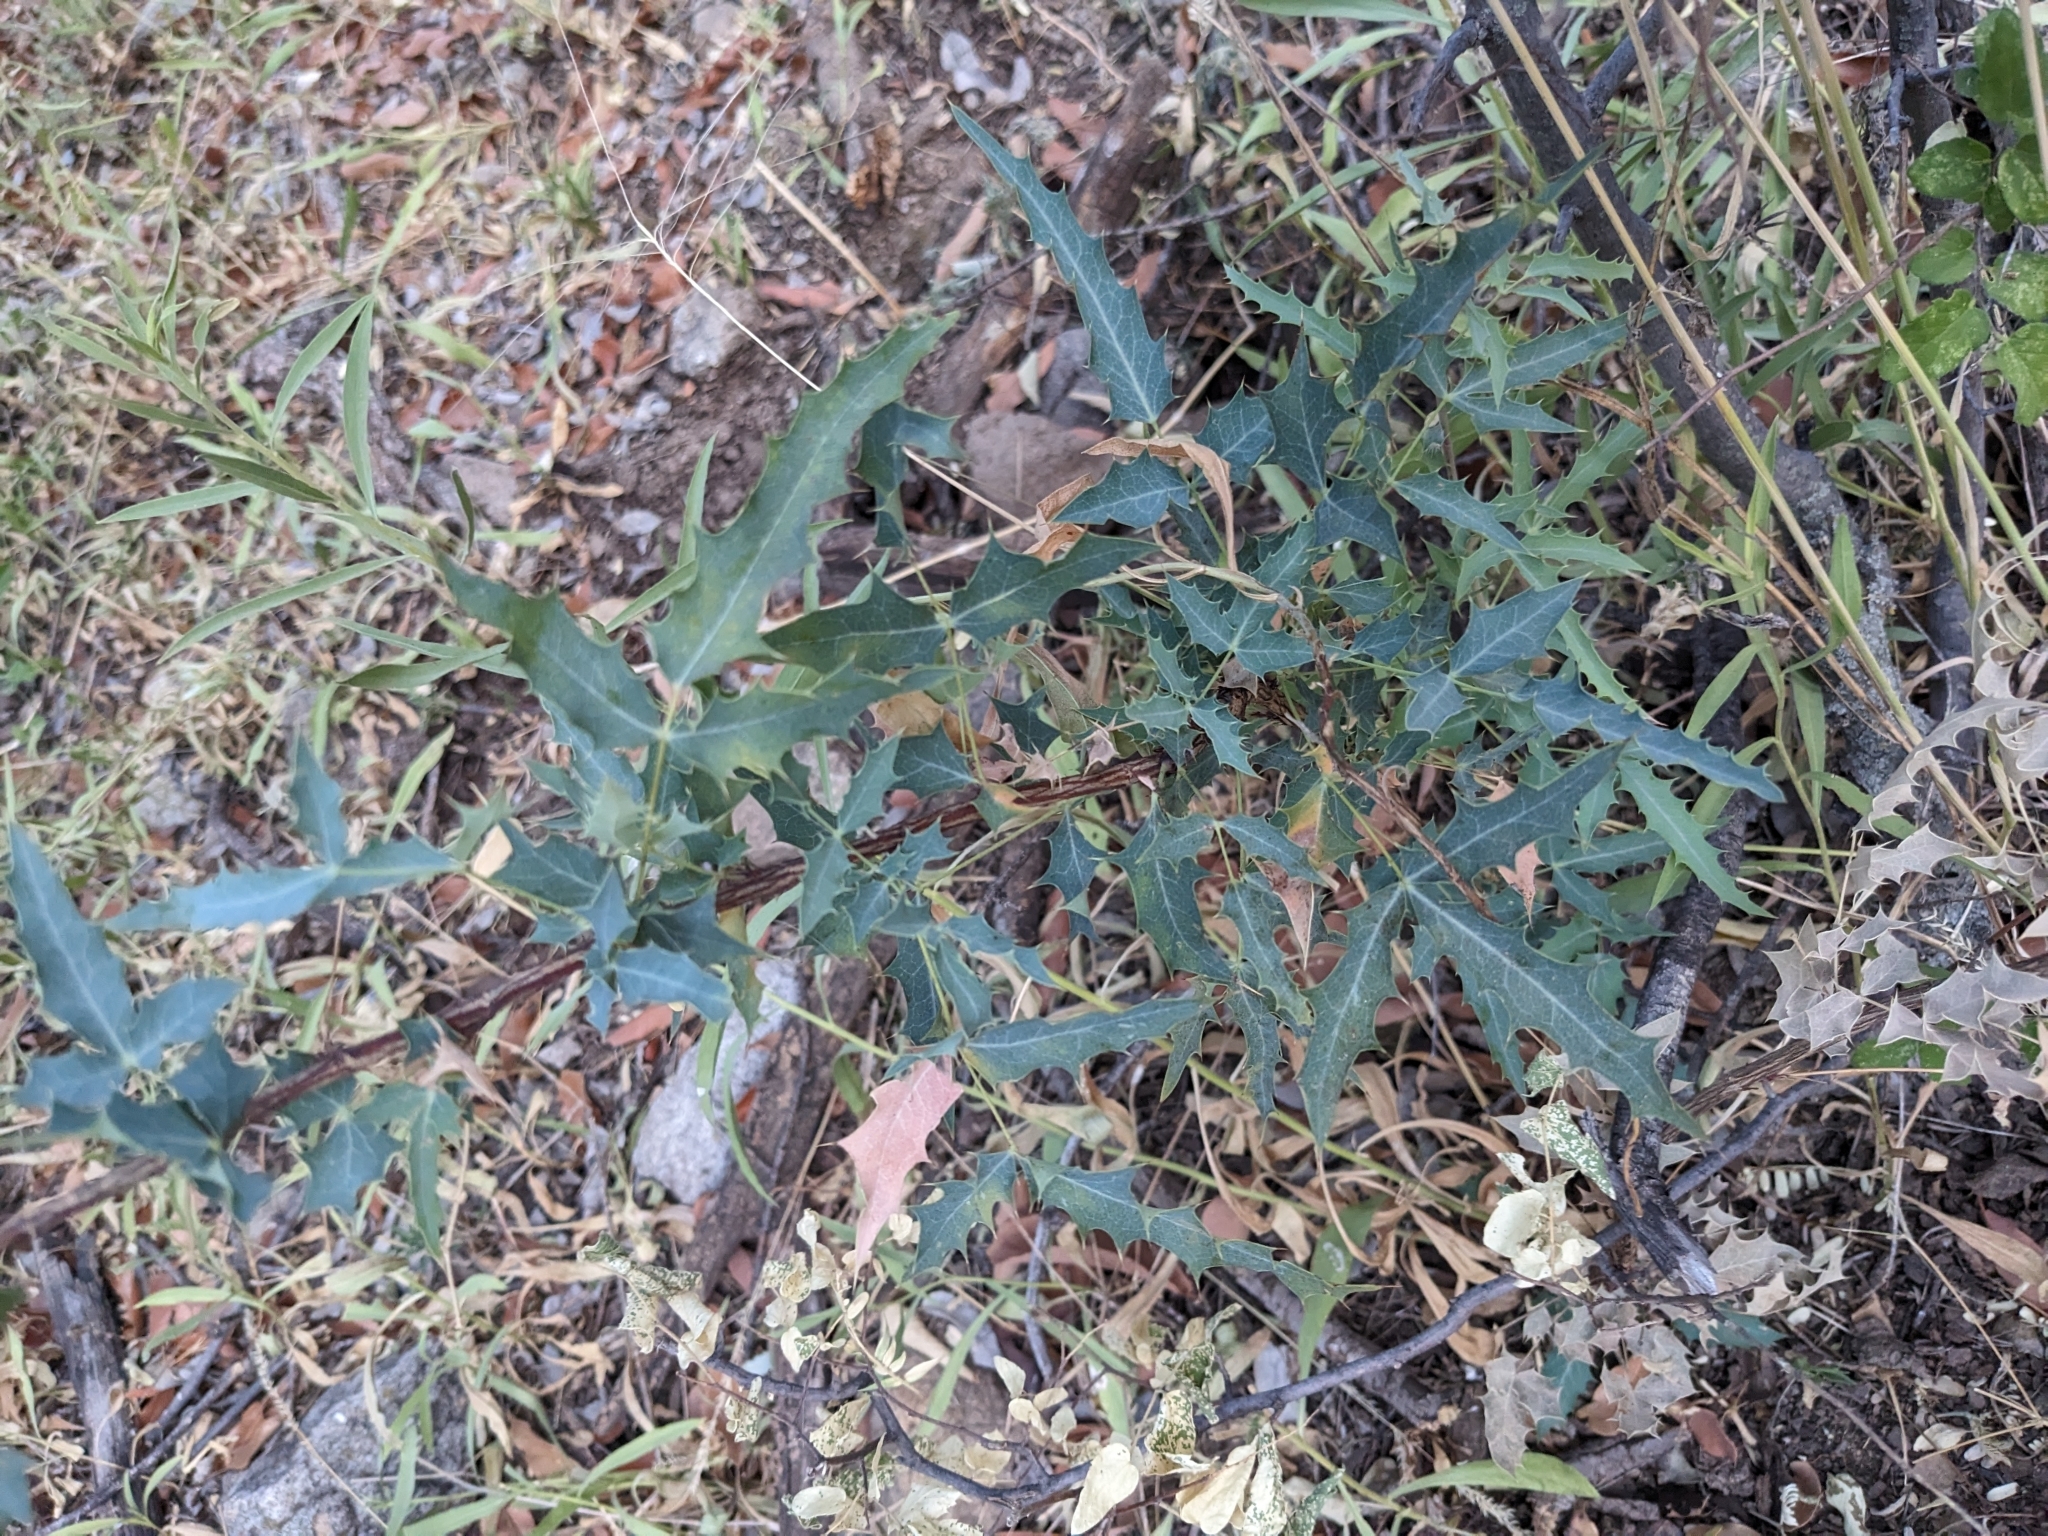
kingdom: Plantae
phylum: Tracheophyta
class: Magnoliopsida
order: Ranunculales
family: Berberidaceae
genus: Alloberberis
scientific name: Alloberberis haematocarpa
